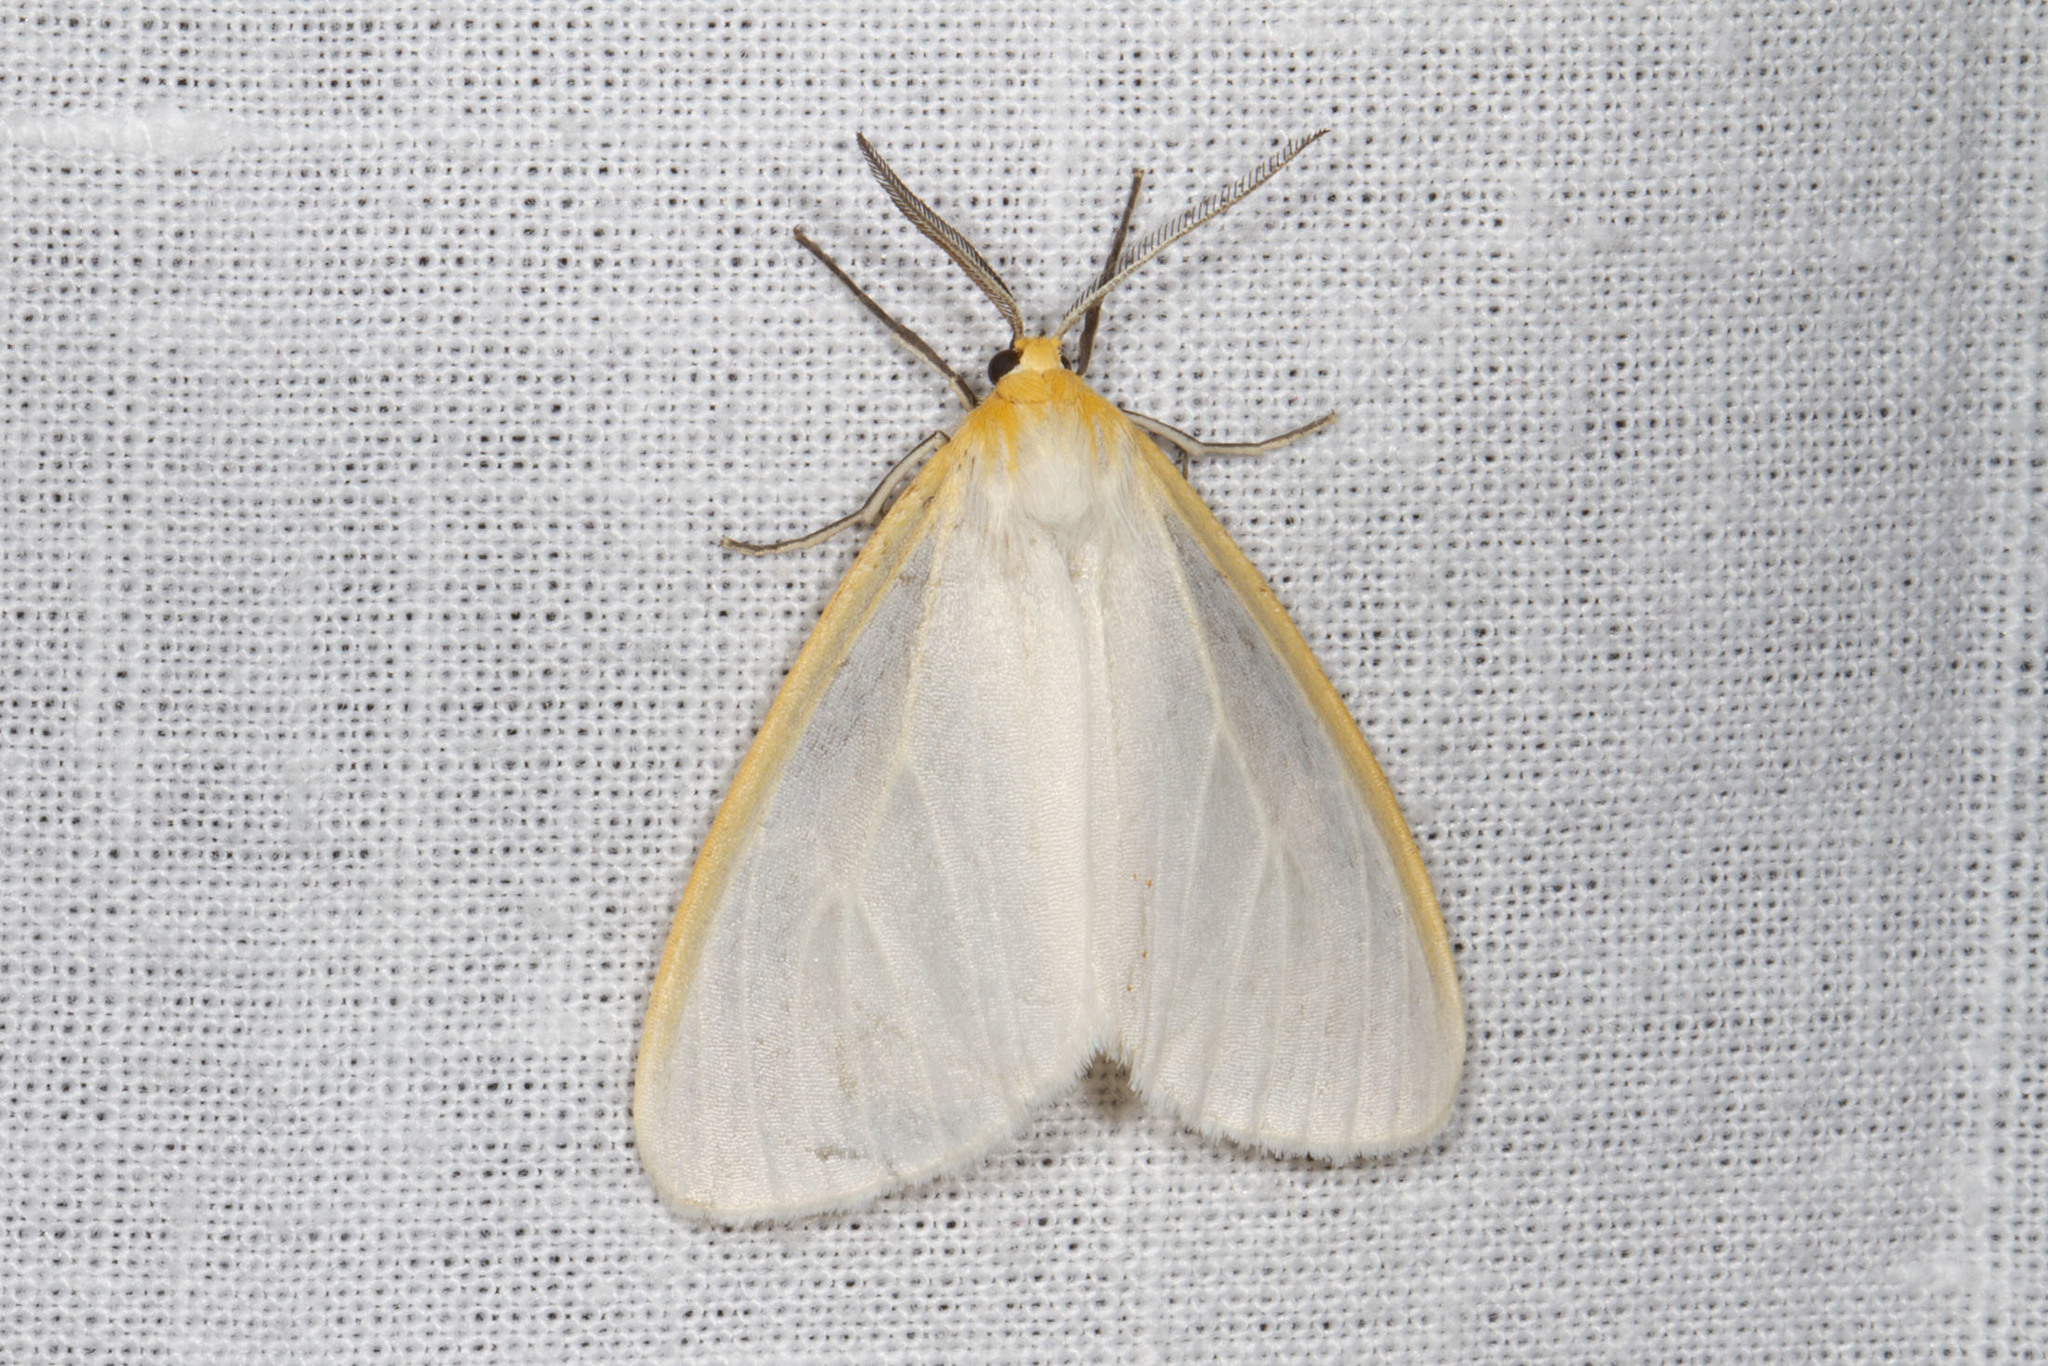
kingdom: Animalia
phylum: Arthropoda
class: Insecta
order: Lepidoptera
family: Erebidae
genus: Cycnia
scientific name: Cycnia tenera
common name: Delicate cycnia moth
